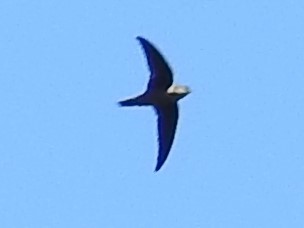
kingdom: Animalia
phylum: Chordata
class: Aves
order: Apodiformes
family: Apodidae
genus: Chaetura
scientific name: Chaetura vauxi
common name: Vaux's swift
